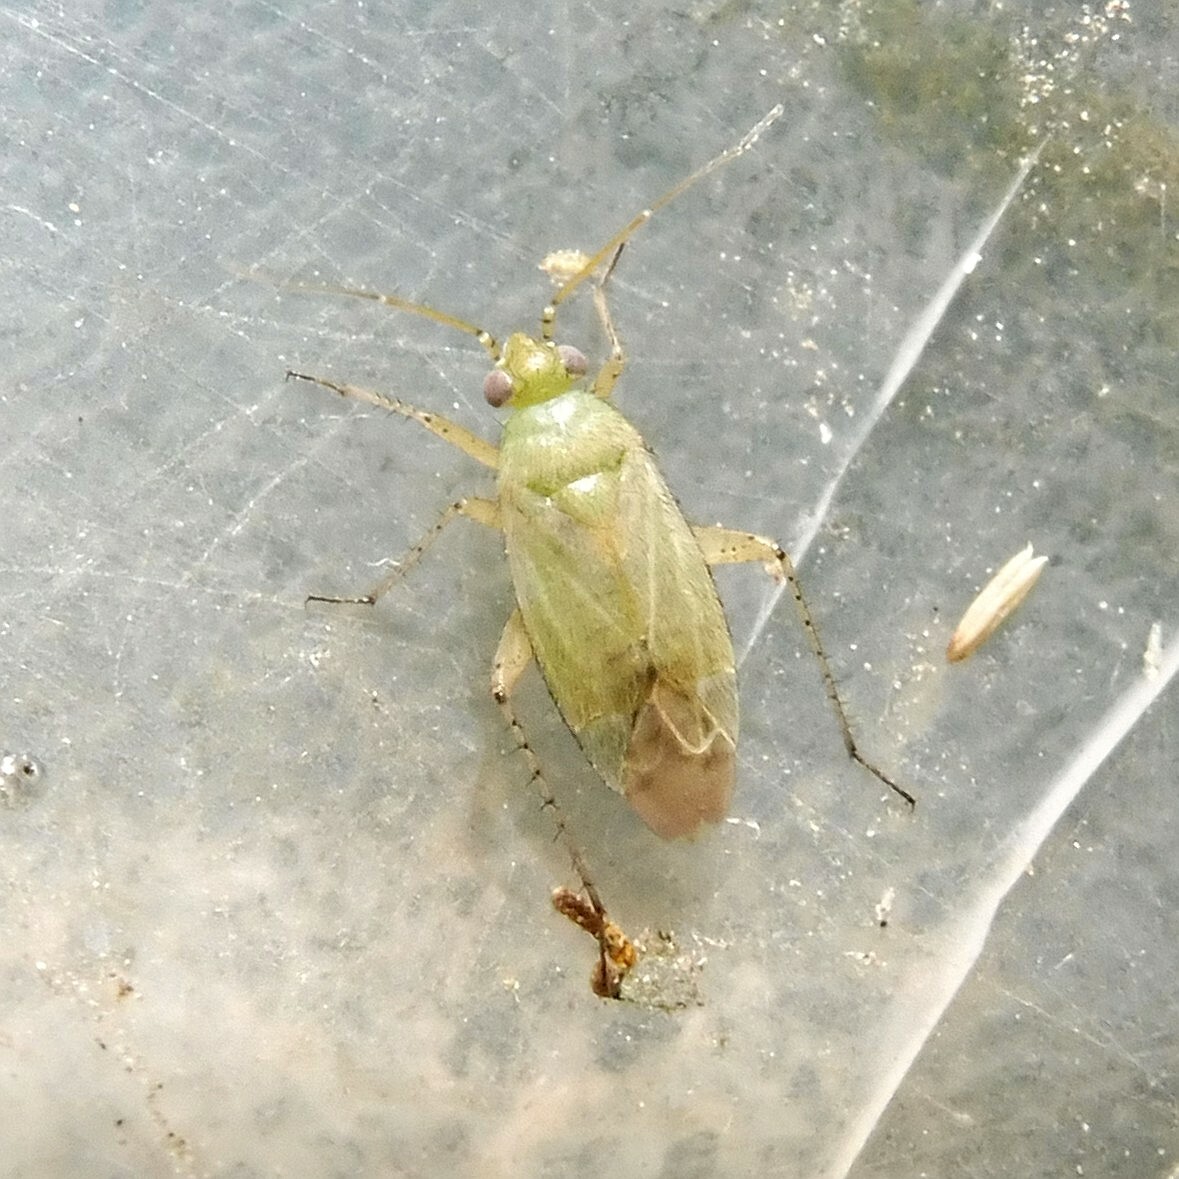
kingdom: Animalia
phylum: Arthropoda
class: Insecta
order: Hemiptera
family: Miridae
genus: Plagiognathus
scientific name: Plagiognathus chrysanthemi
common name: Plant bug
